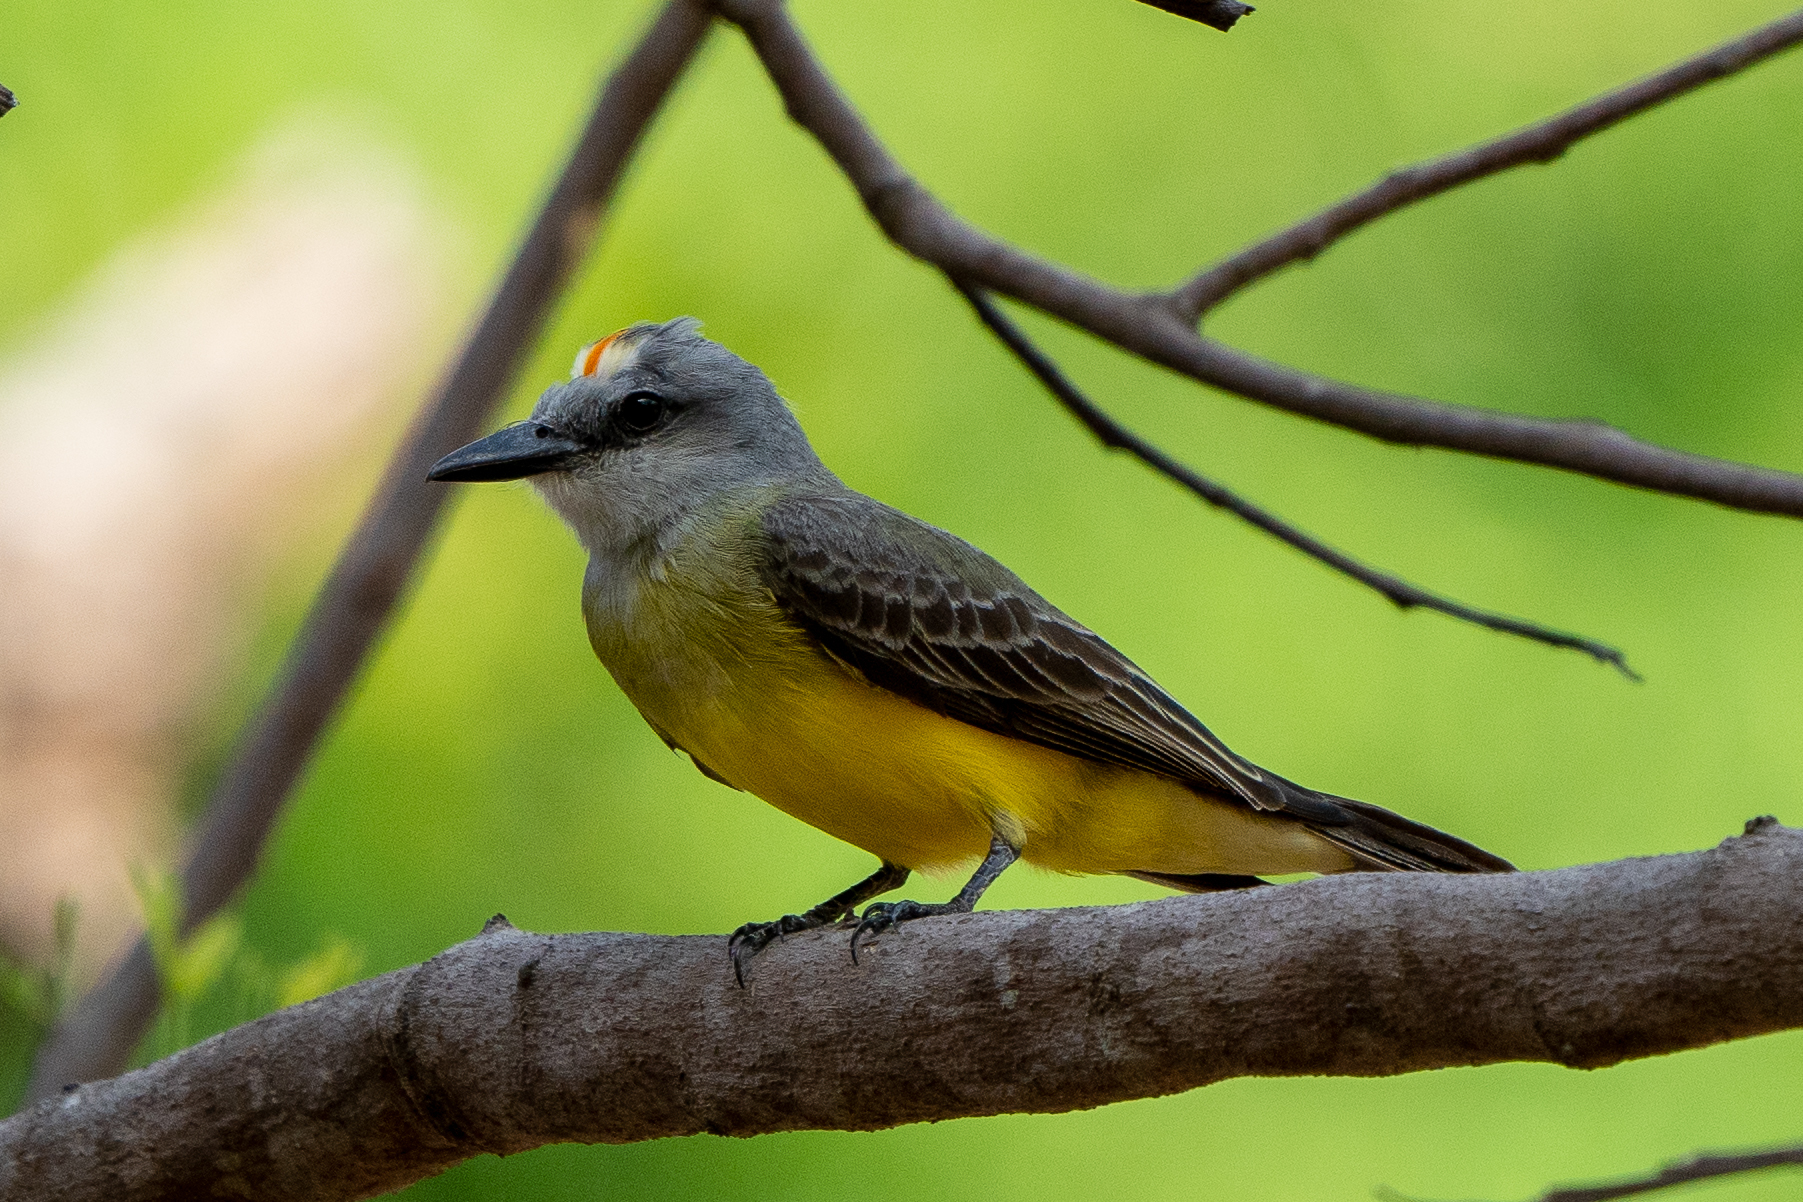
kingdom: Animalia
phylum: Chordata
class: Aves
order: Passeriformes
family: Tyrannidae
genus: Tyrannus
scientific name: Tyrannus melancholicus
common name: Tropical kingbird
